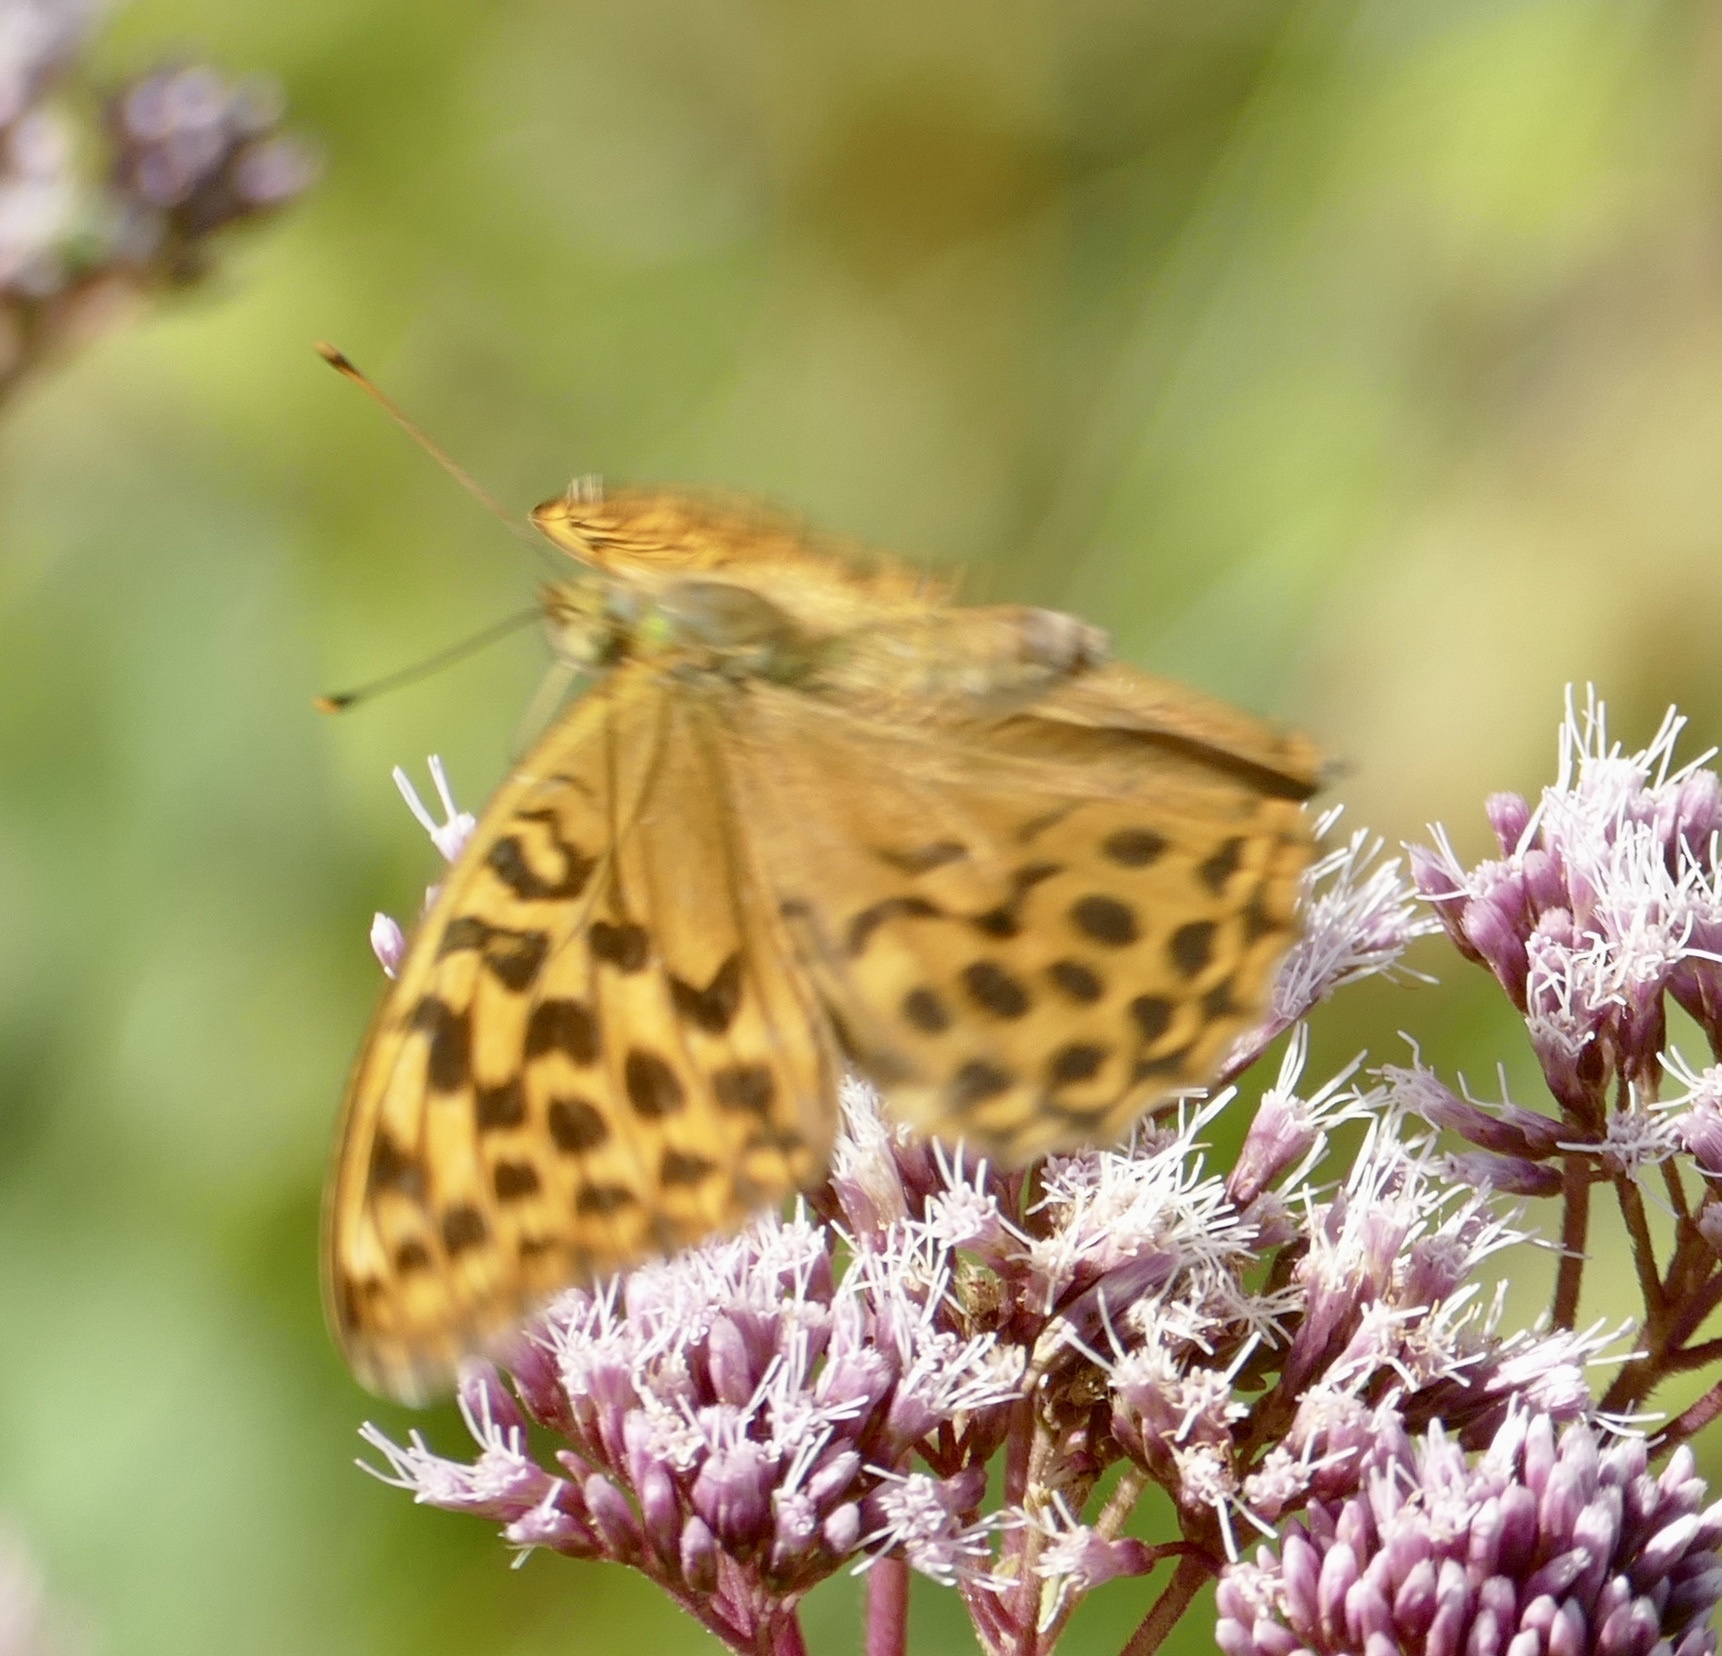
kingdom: Animalia
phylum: Arthropoda
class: Insecta
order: Lepidoptera
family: Nymphalidae
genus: Argynnis
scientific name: Argynnis paphia
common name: Silver-washed fritillary
